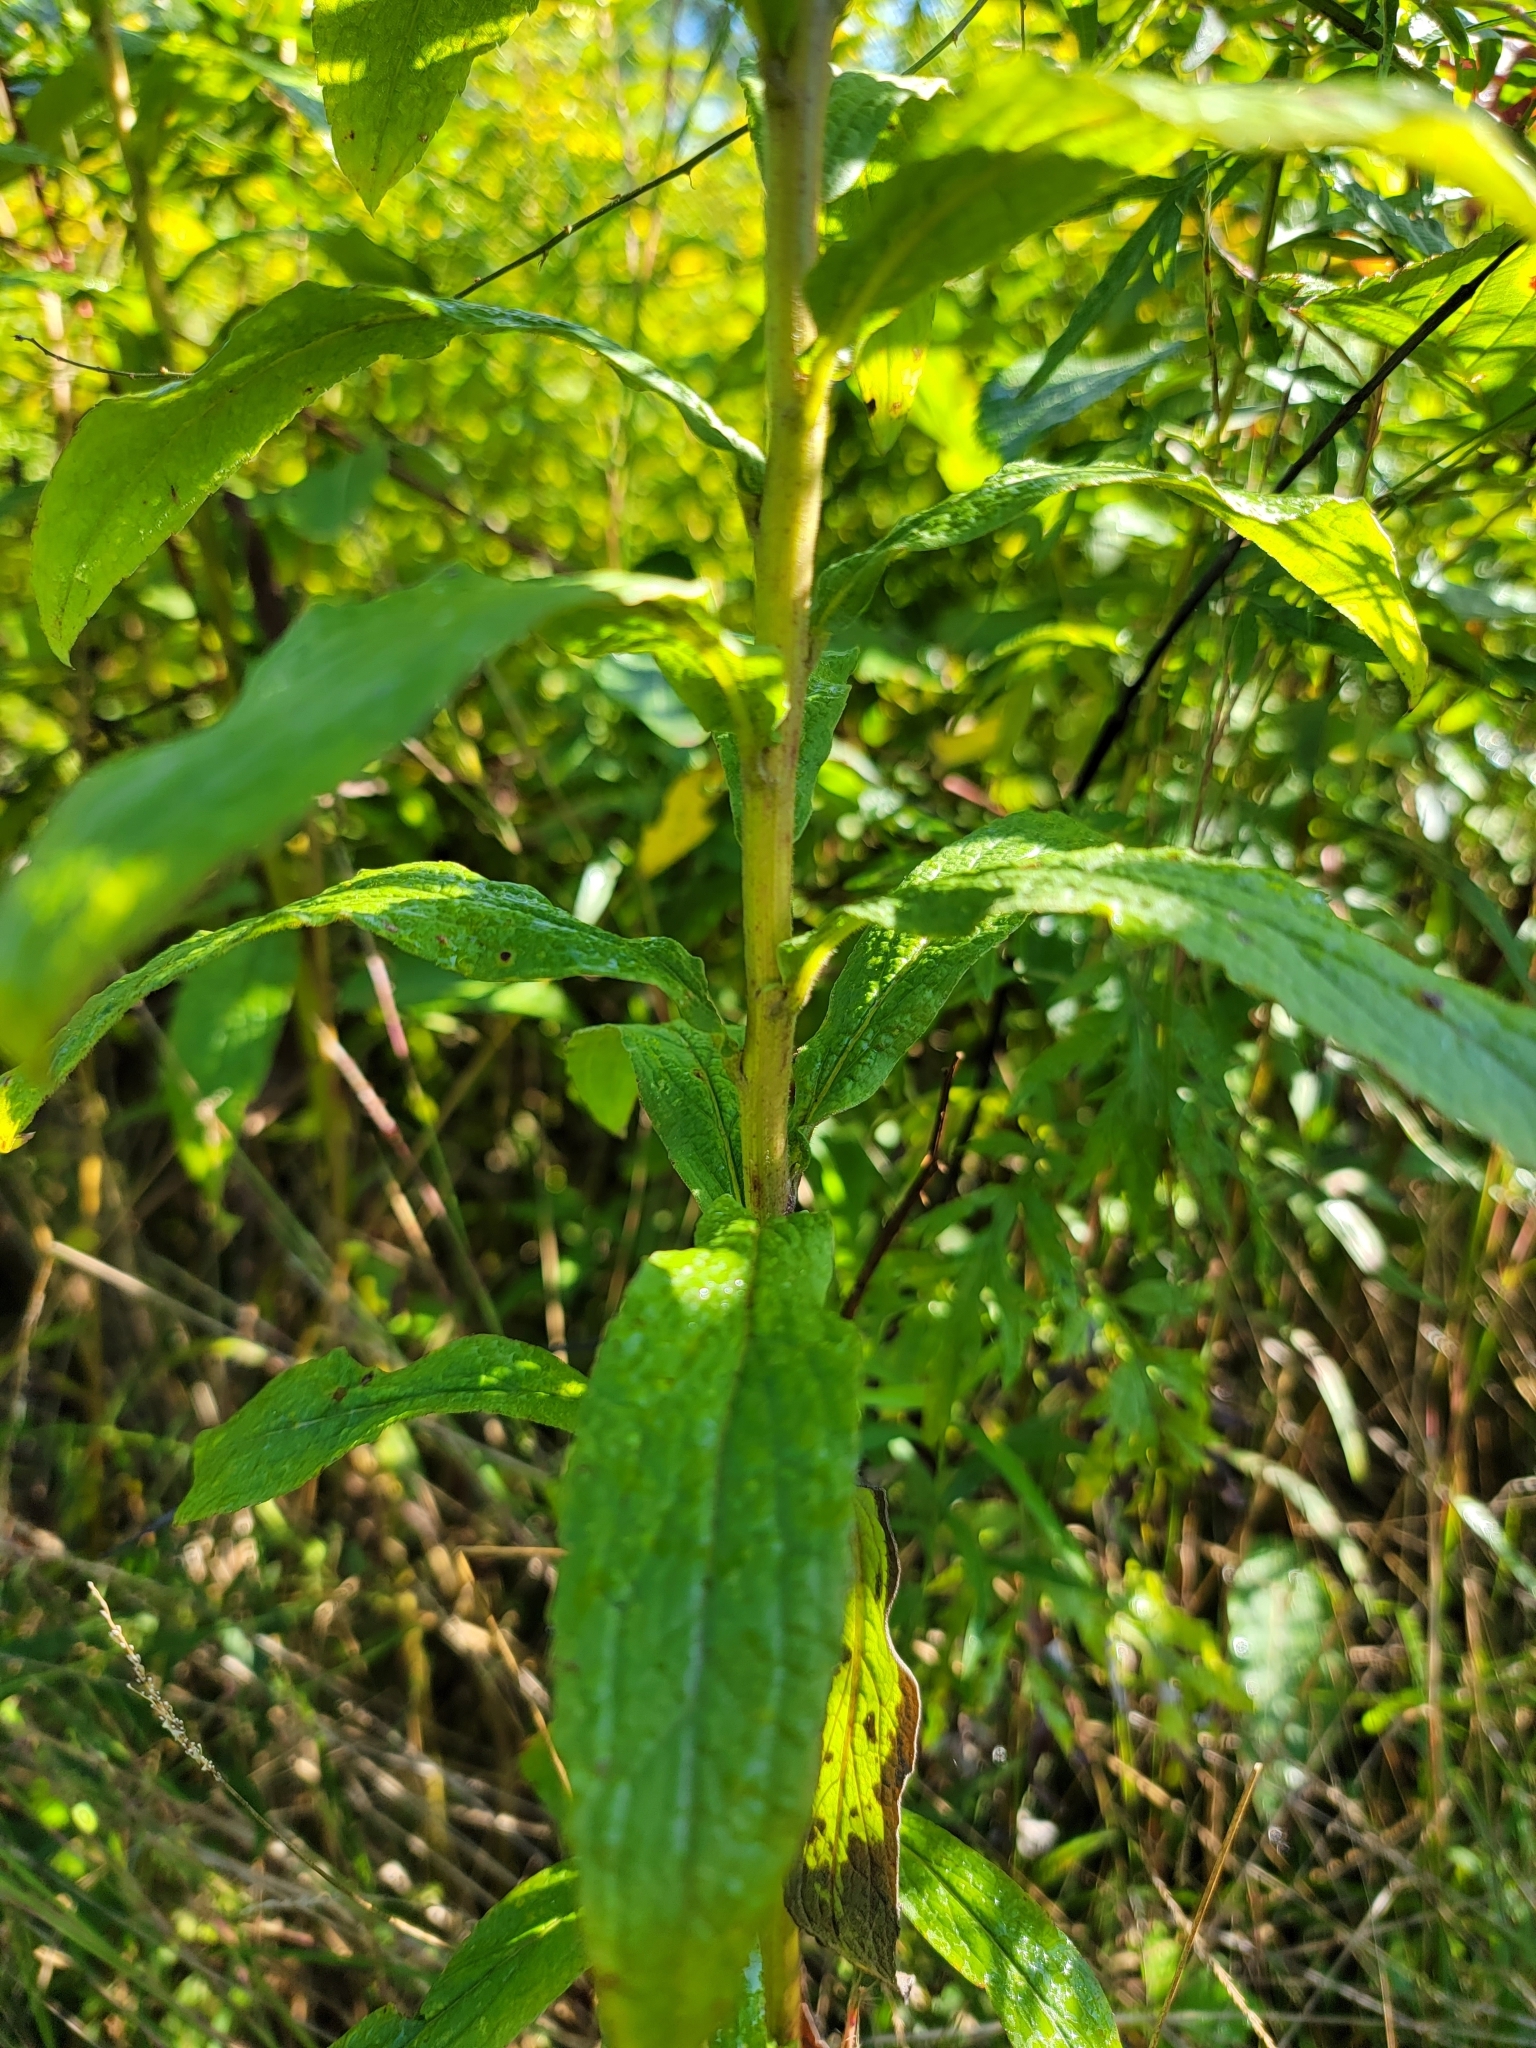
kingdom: Plantae
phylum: Tracheophyta
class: Magnoliopsida
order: Asterales
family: Asteraceae
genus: Solidago
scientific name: Solidago rugosa
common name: Rough-stemmed goldenrod
